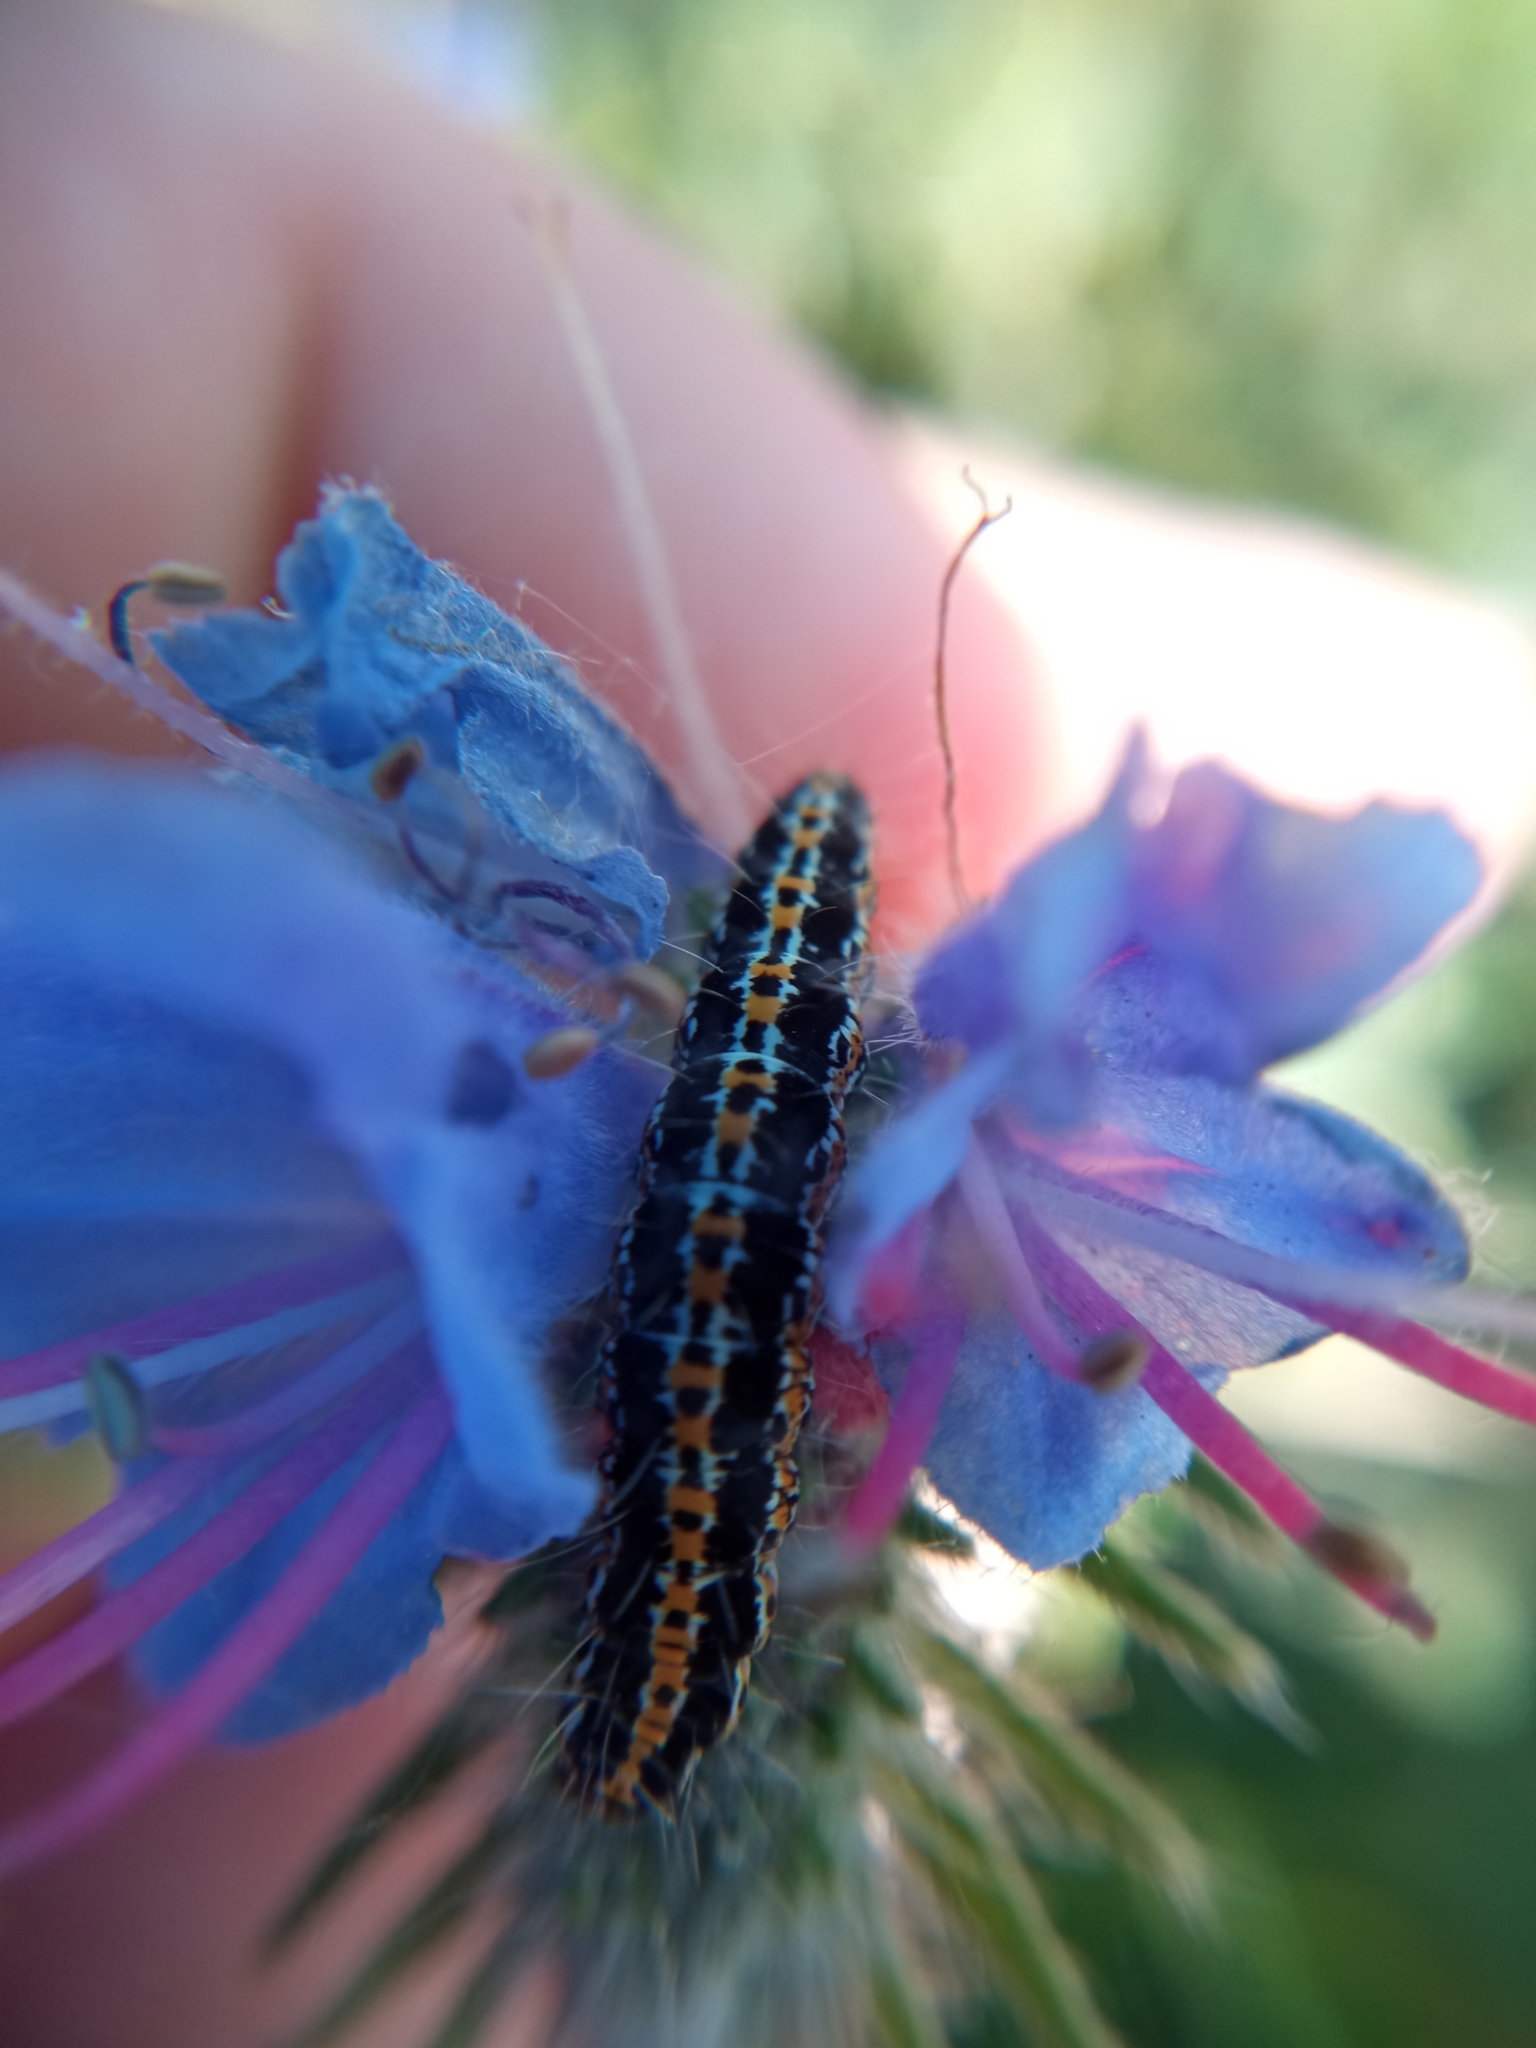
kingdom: Animalia
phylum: Arthropoda
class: Insecta
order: Lepidoptera
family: Ethmiidae
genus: Ethmia
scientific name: Ethmia bipunctella
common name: Bordered ermel
